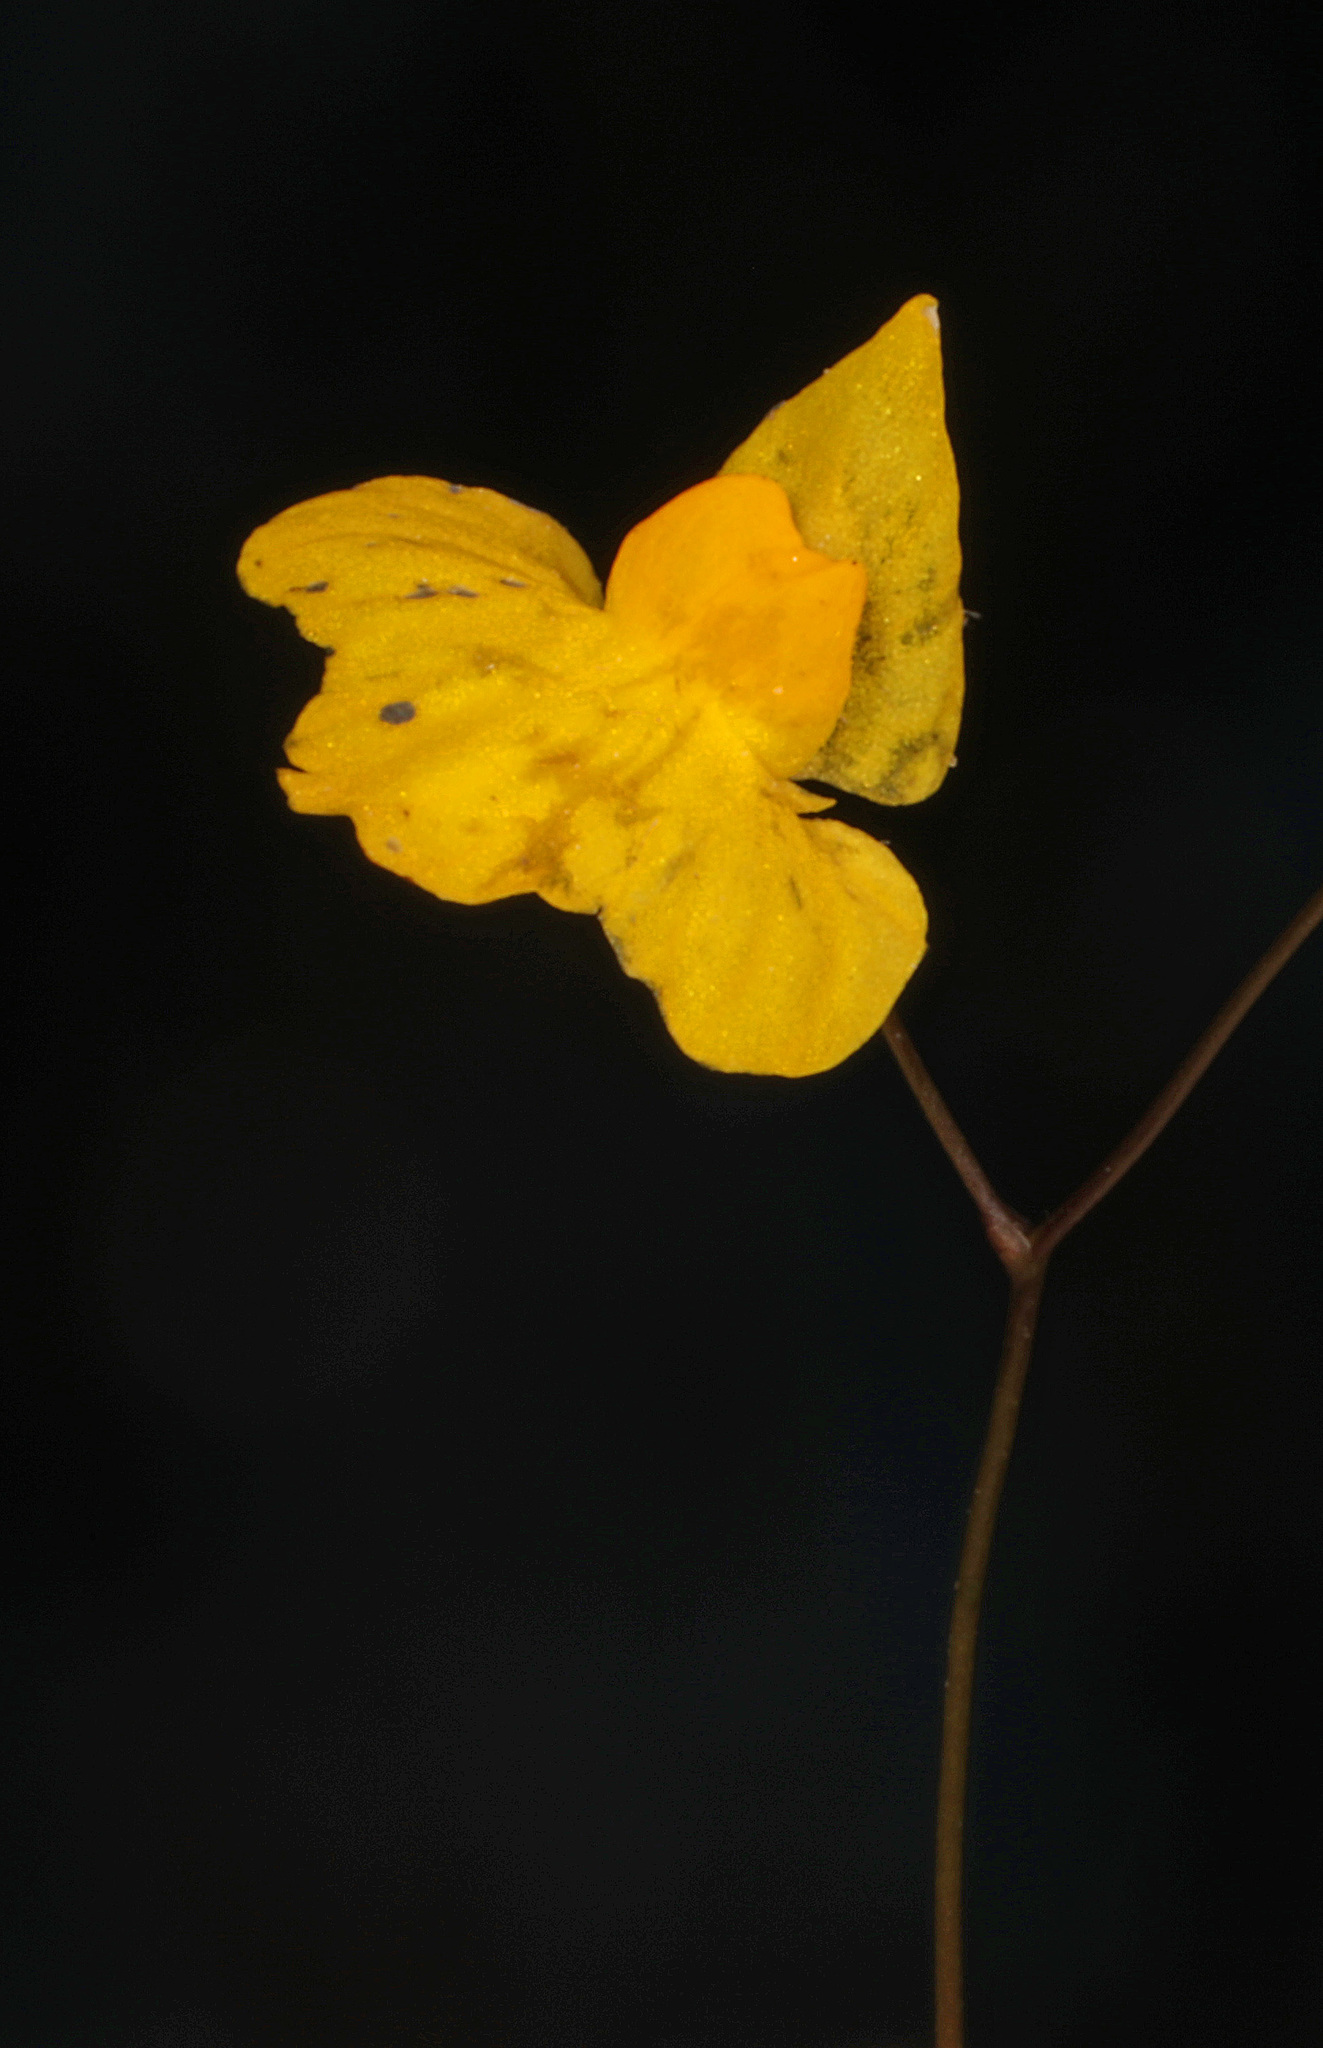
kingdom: Plantae
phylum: Tracheophyta
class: Magnoliopsida
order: Lamiales
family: Lentibulariaceae
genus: Utricularia
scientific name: Utricularia subulata
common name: Tiny bladderwort
